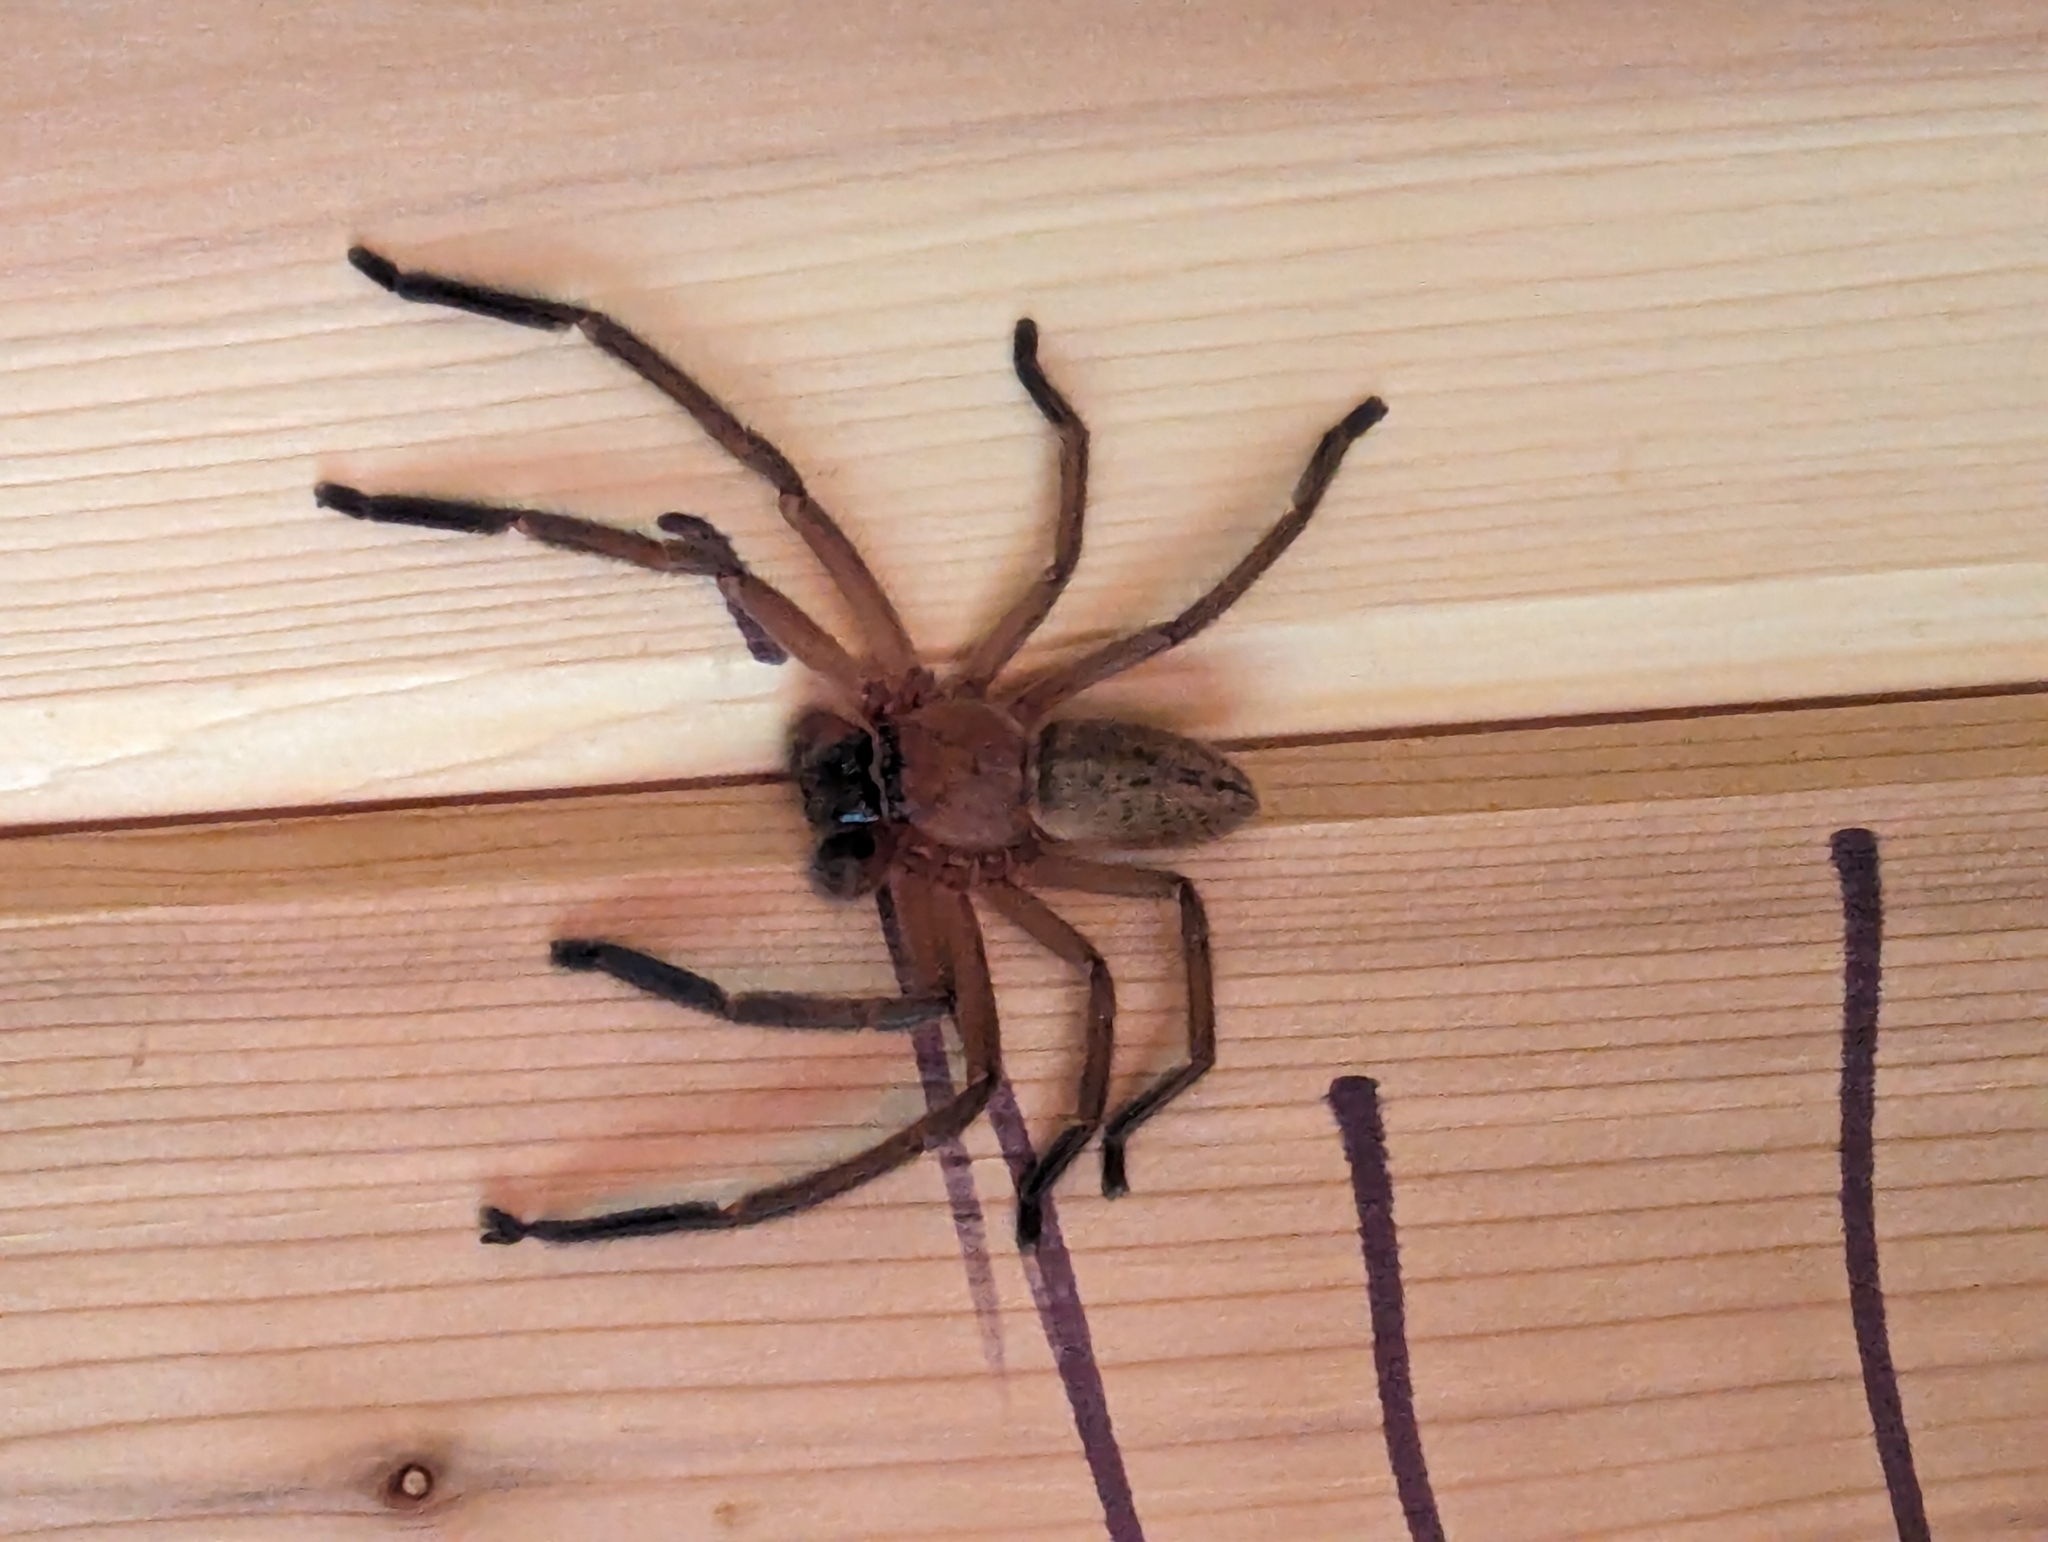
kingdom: Animalia
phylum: Arthropoda
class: Arachnida
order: Araneae
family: Sparassidae
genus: Delena
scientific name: Delena cancerides
